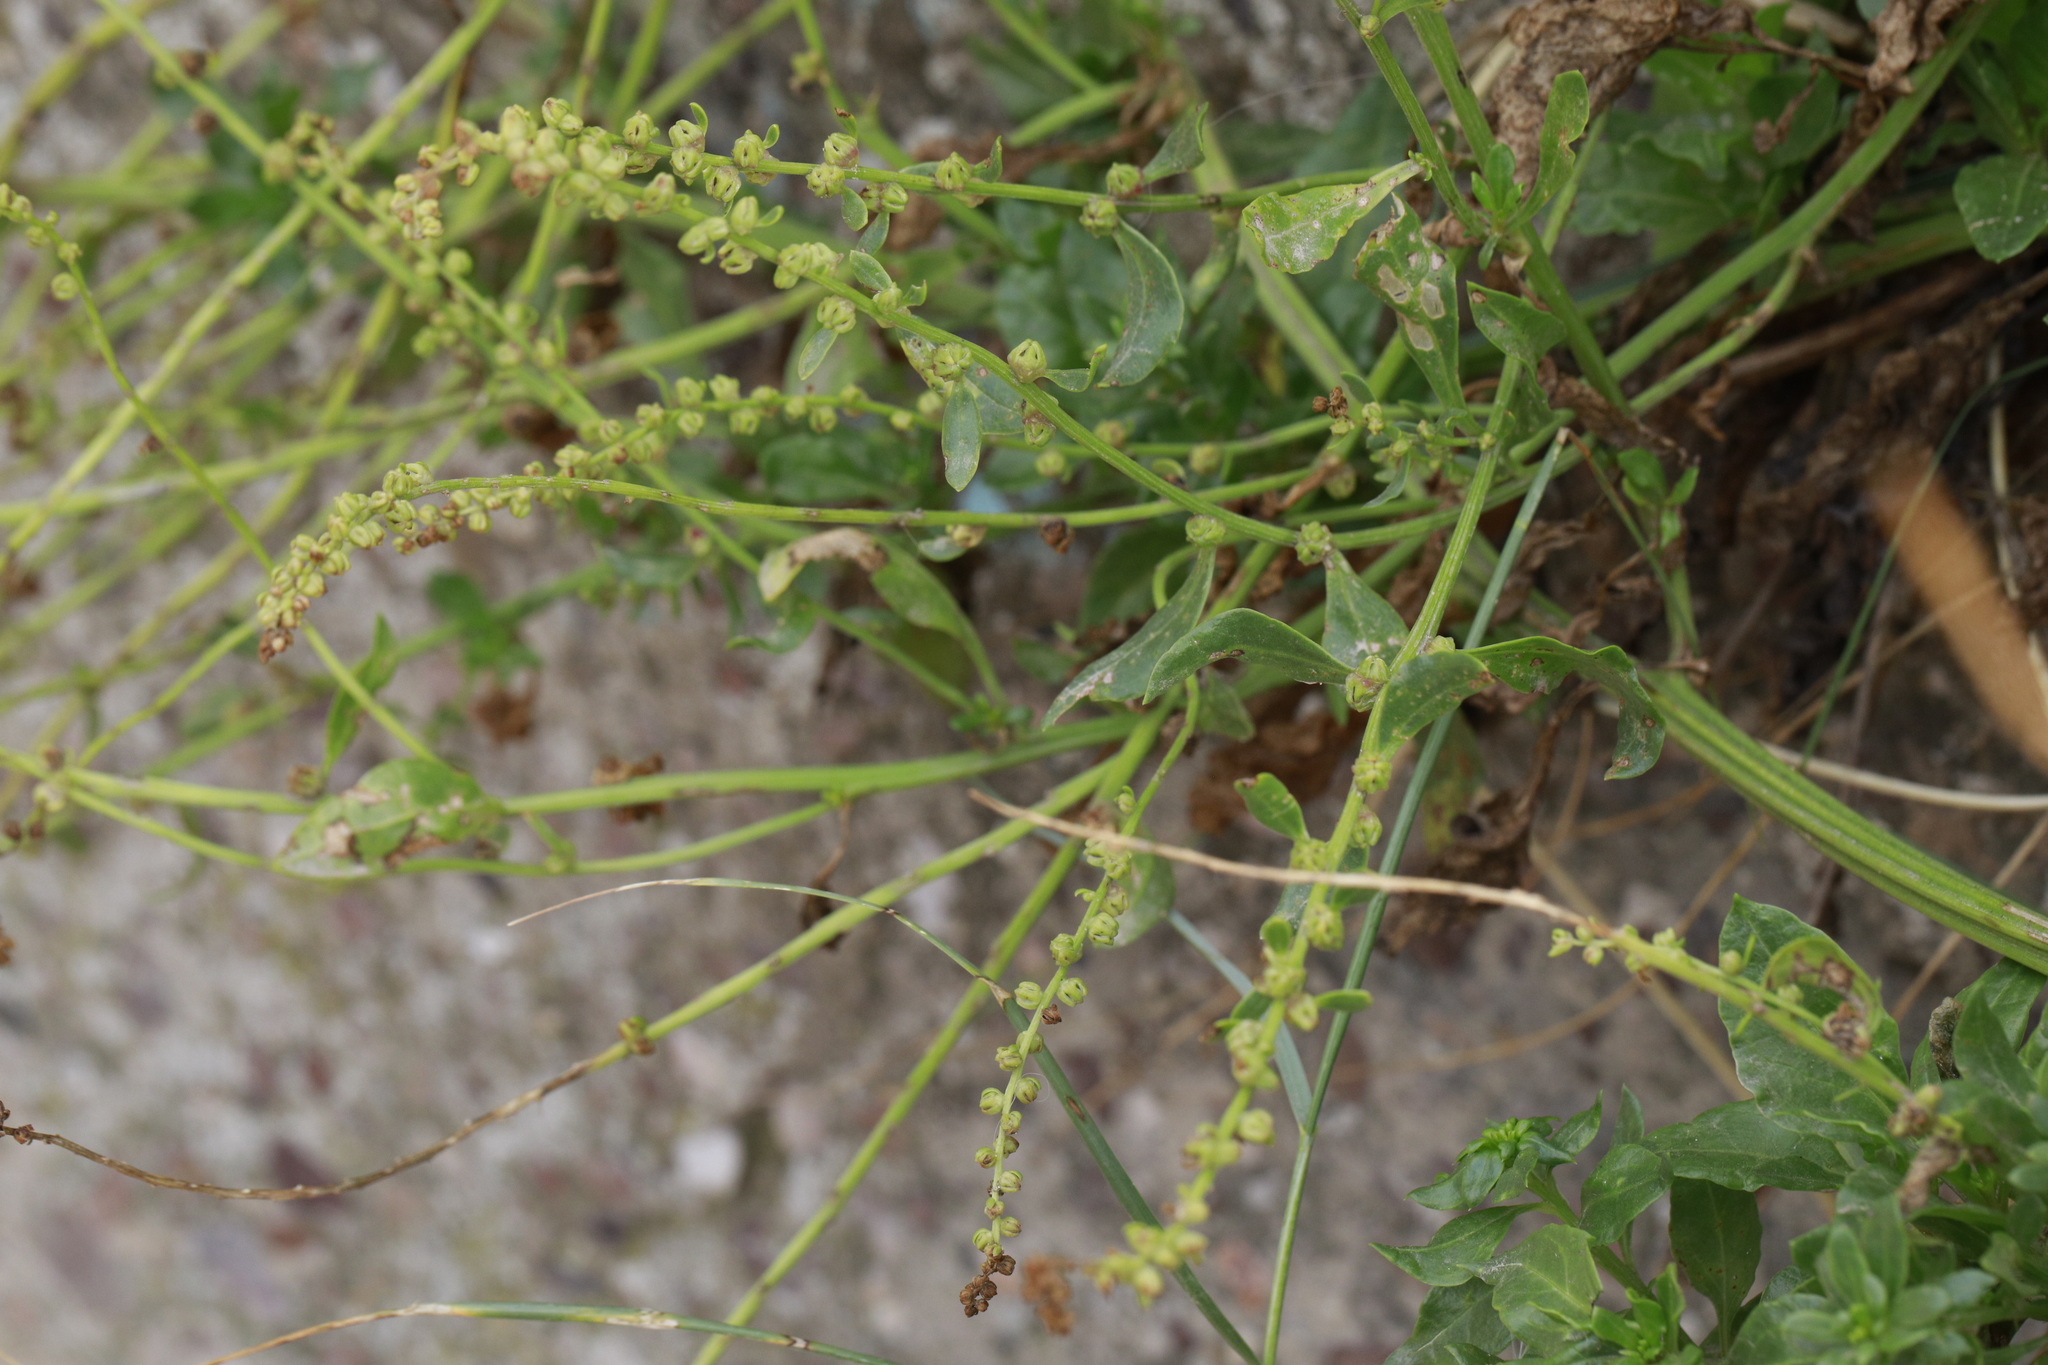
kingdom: Plantae
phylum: Tracheophyta
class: Magnoliopsida
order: Caryophyllales
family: Amaranthaceae
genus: Atriplex
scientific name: Atriplex patula
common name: Common orache
